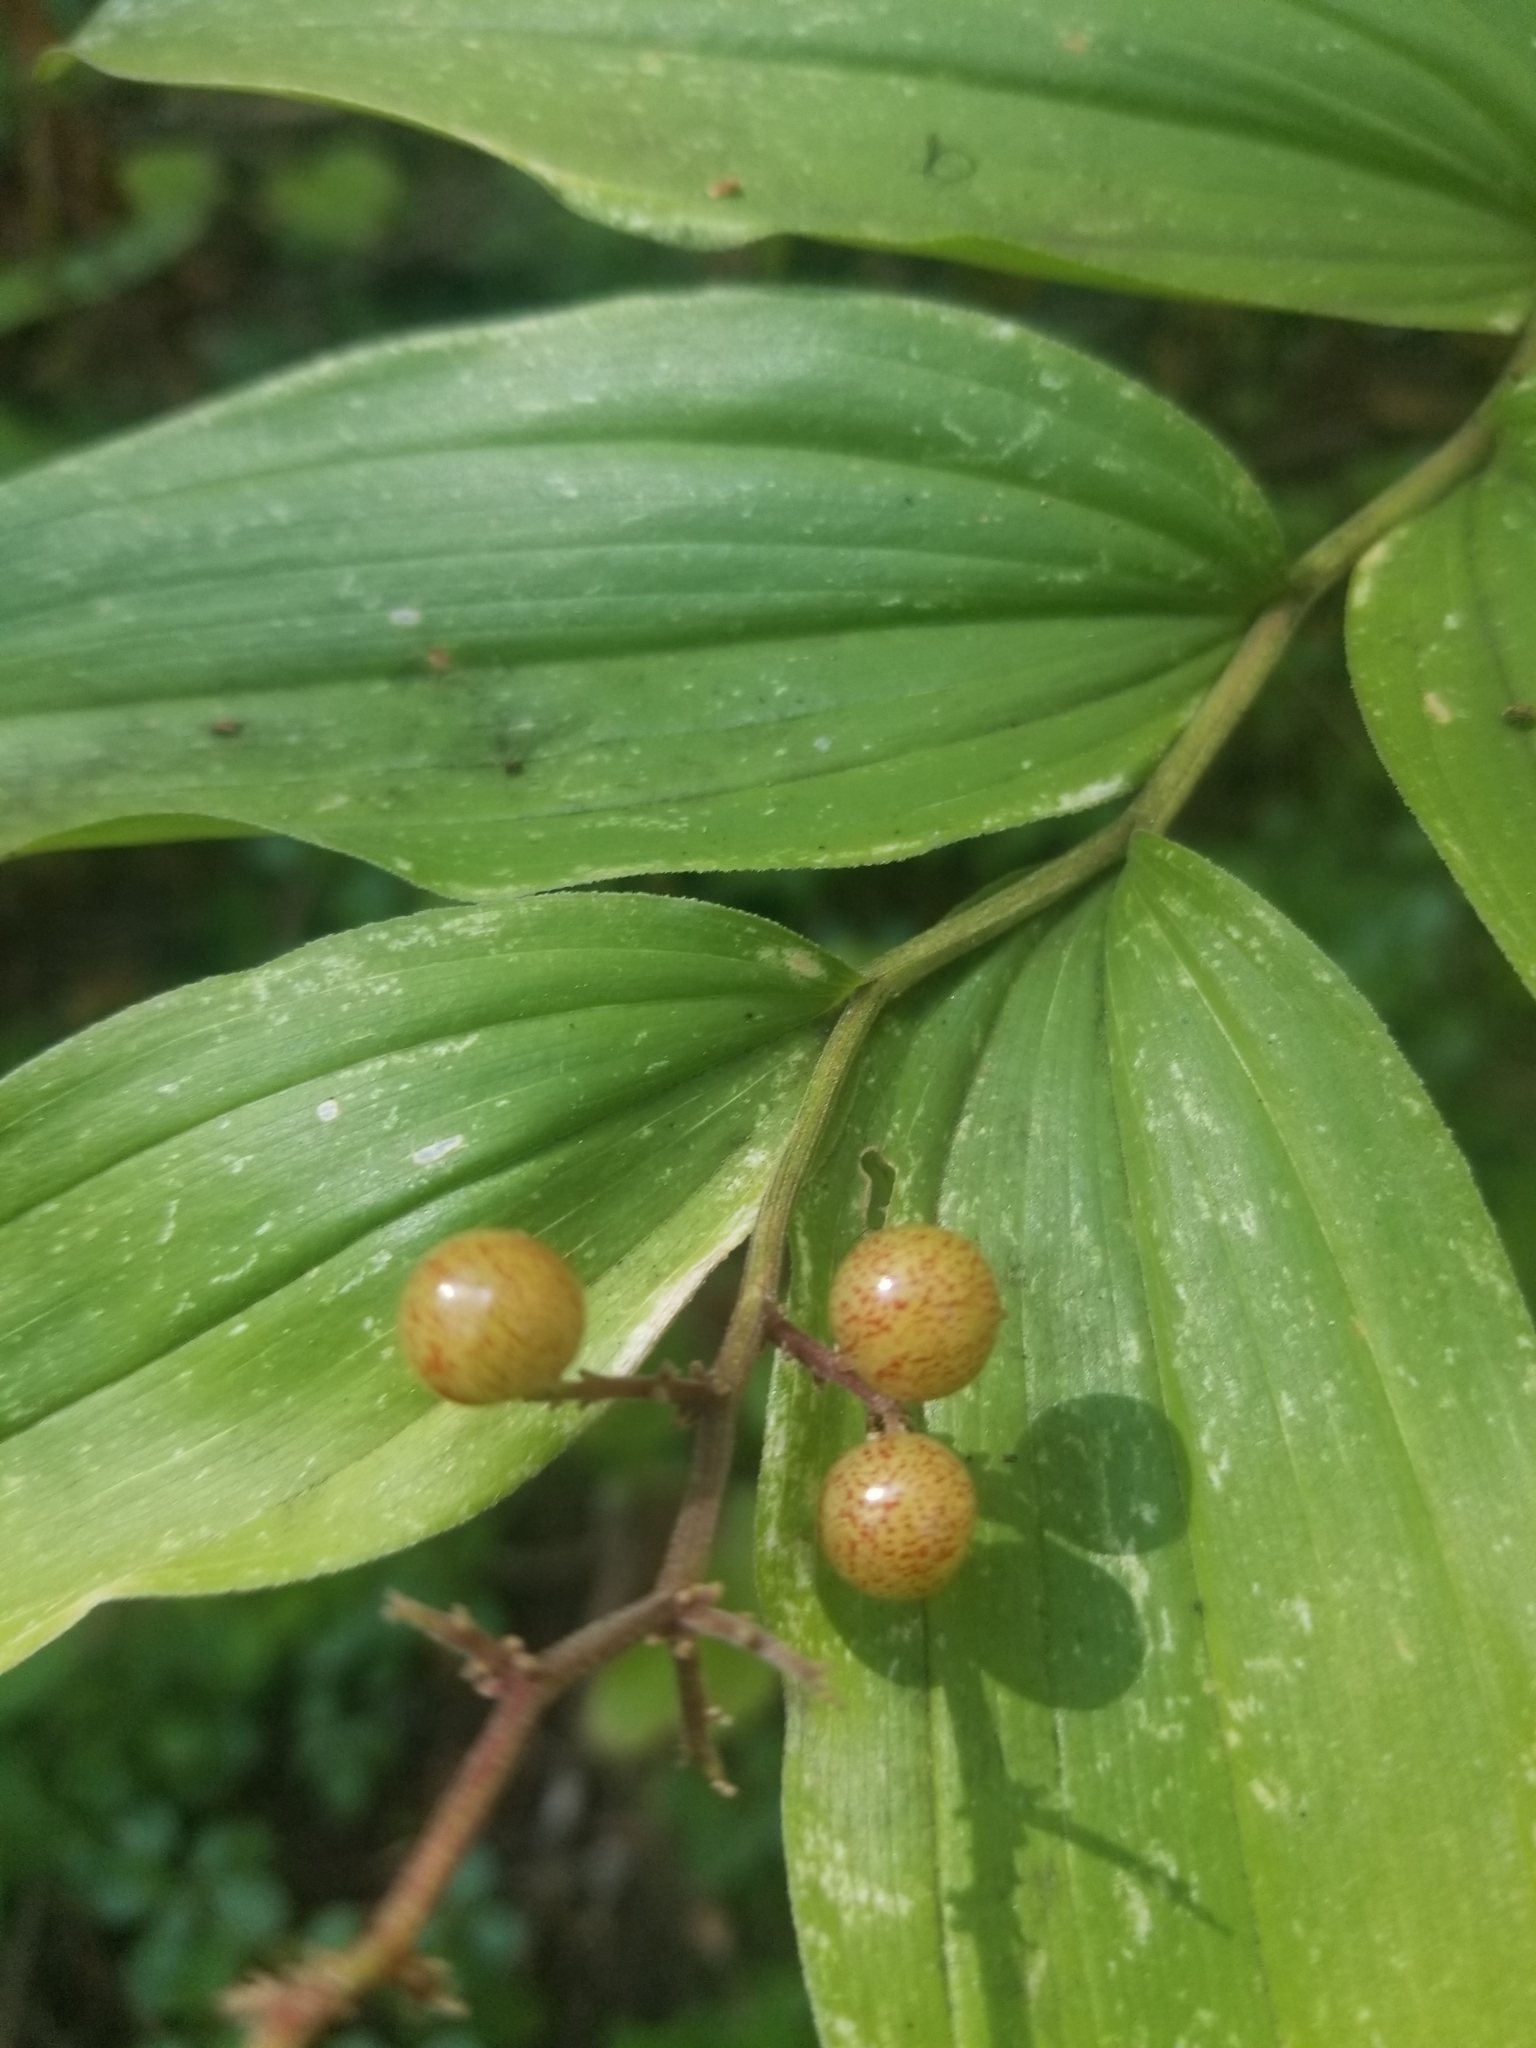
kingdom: Plantae
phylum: Tracheophyta
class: Liliopsida
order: Asparagales
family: Asparagaceae
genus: Maianthemum
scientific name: Maianthemum racemosum
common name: False spikenard
